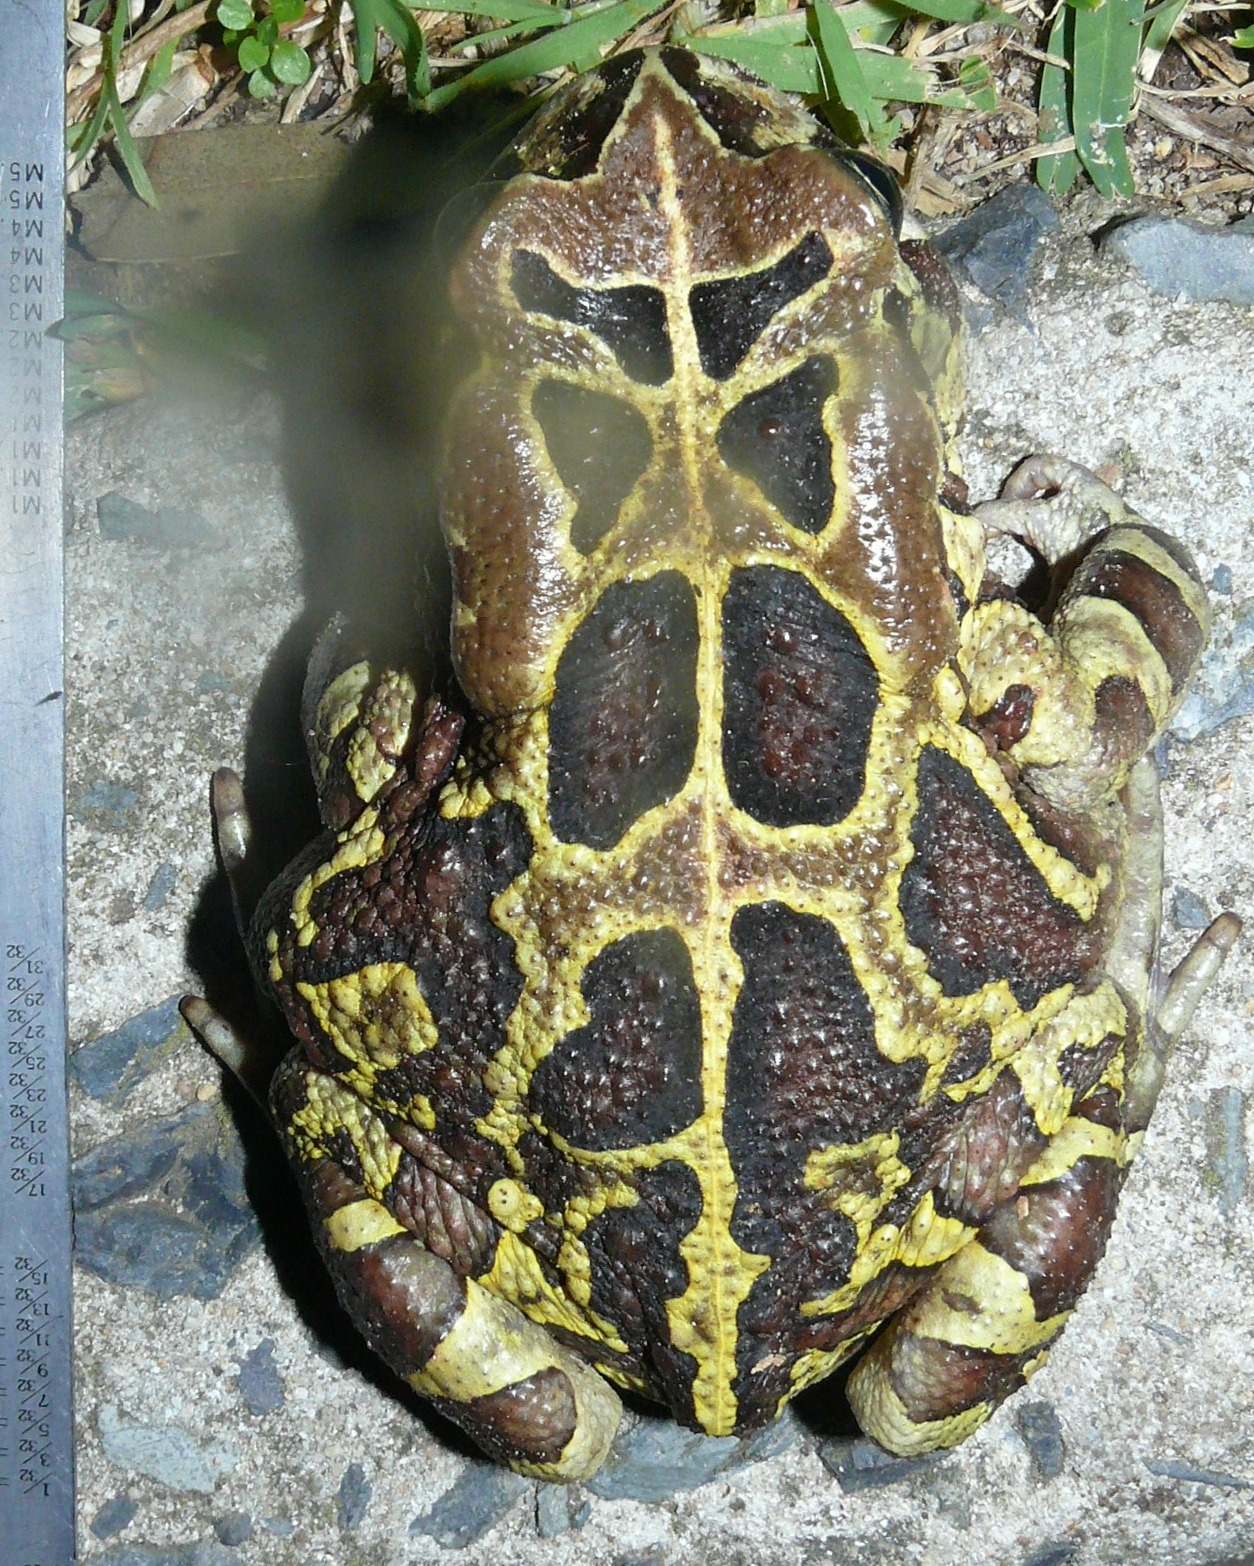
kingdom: Animalia
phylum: Chordata
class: Amphibia
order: Anura
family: Bufonidae
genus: Sclerophrys
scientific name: Sclerophrys pantherina
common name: Panther toad
